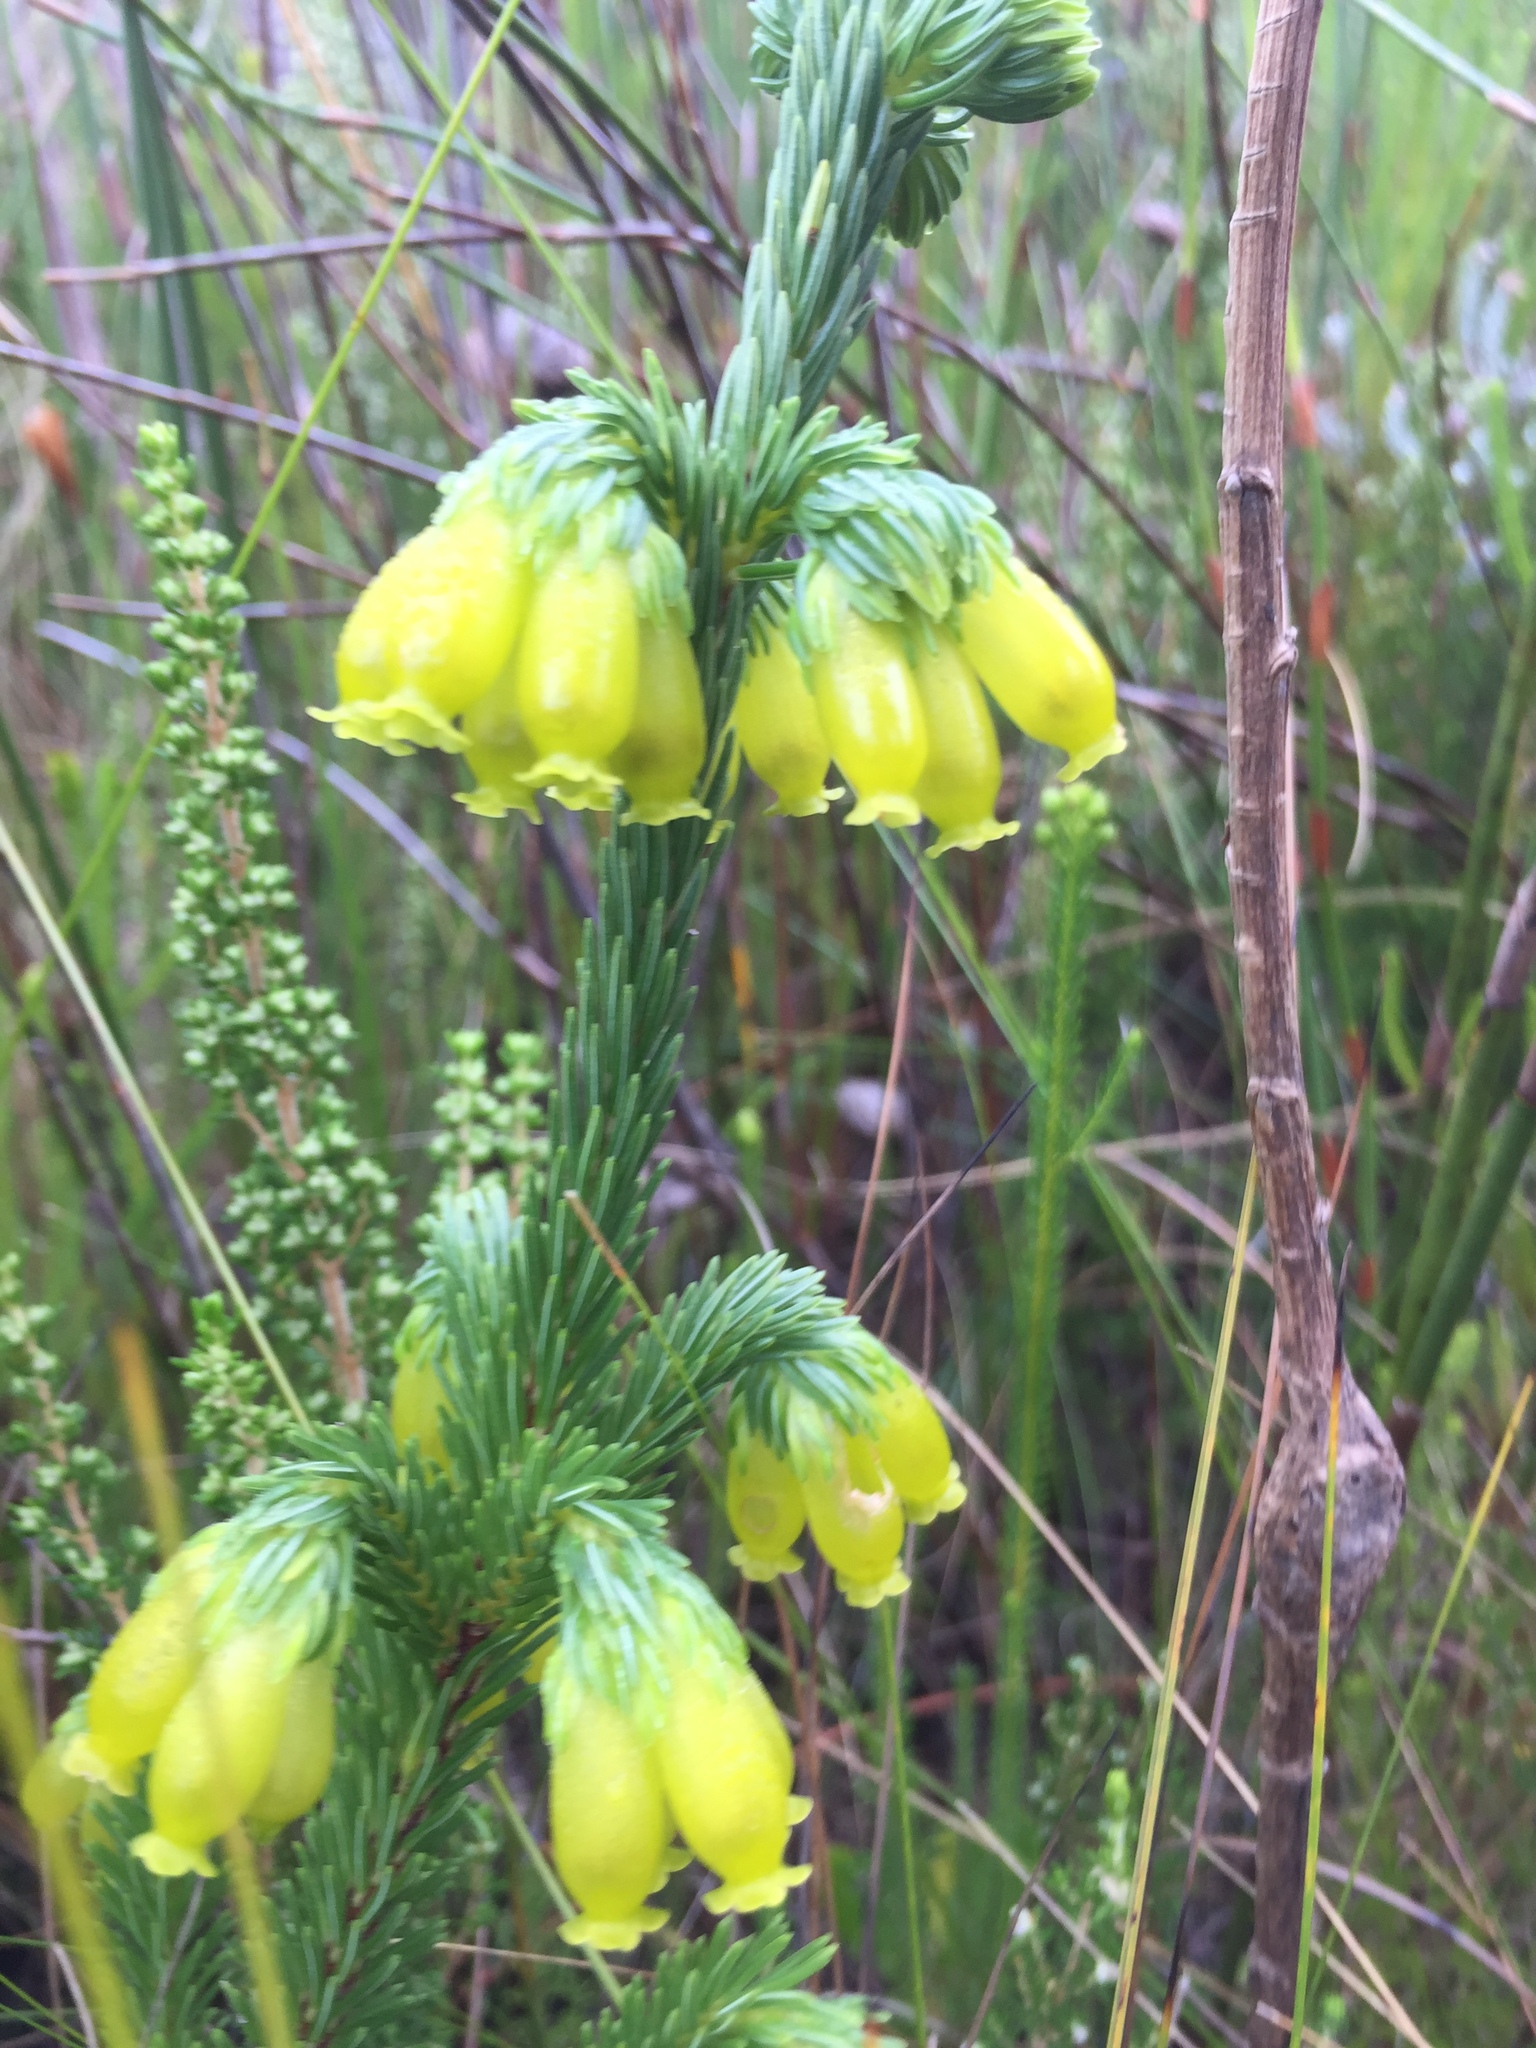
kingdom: Plantae
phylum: Tracheophyta
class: Magnoliopsida
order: Ericales
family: Ericaceae
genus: Erica
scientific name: Erica ceraria
